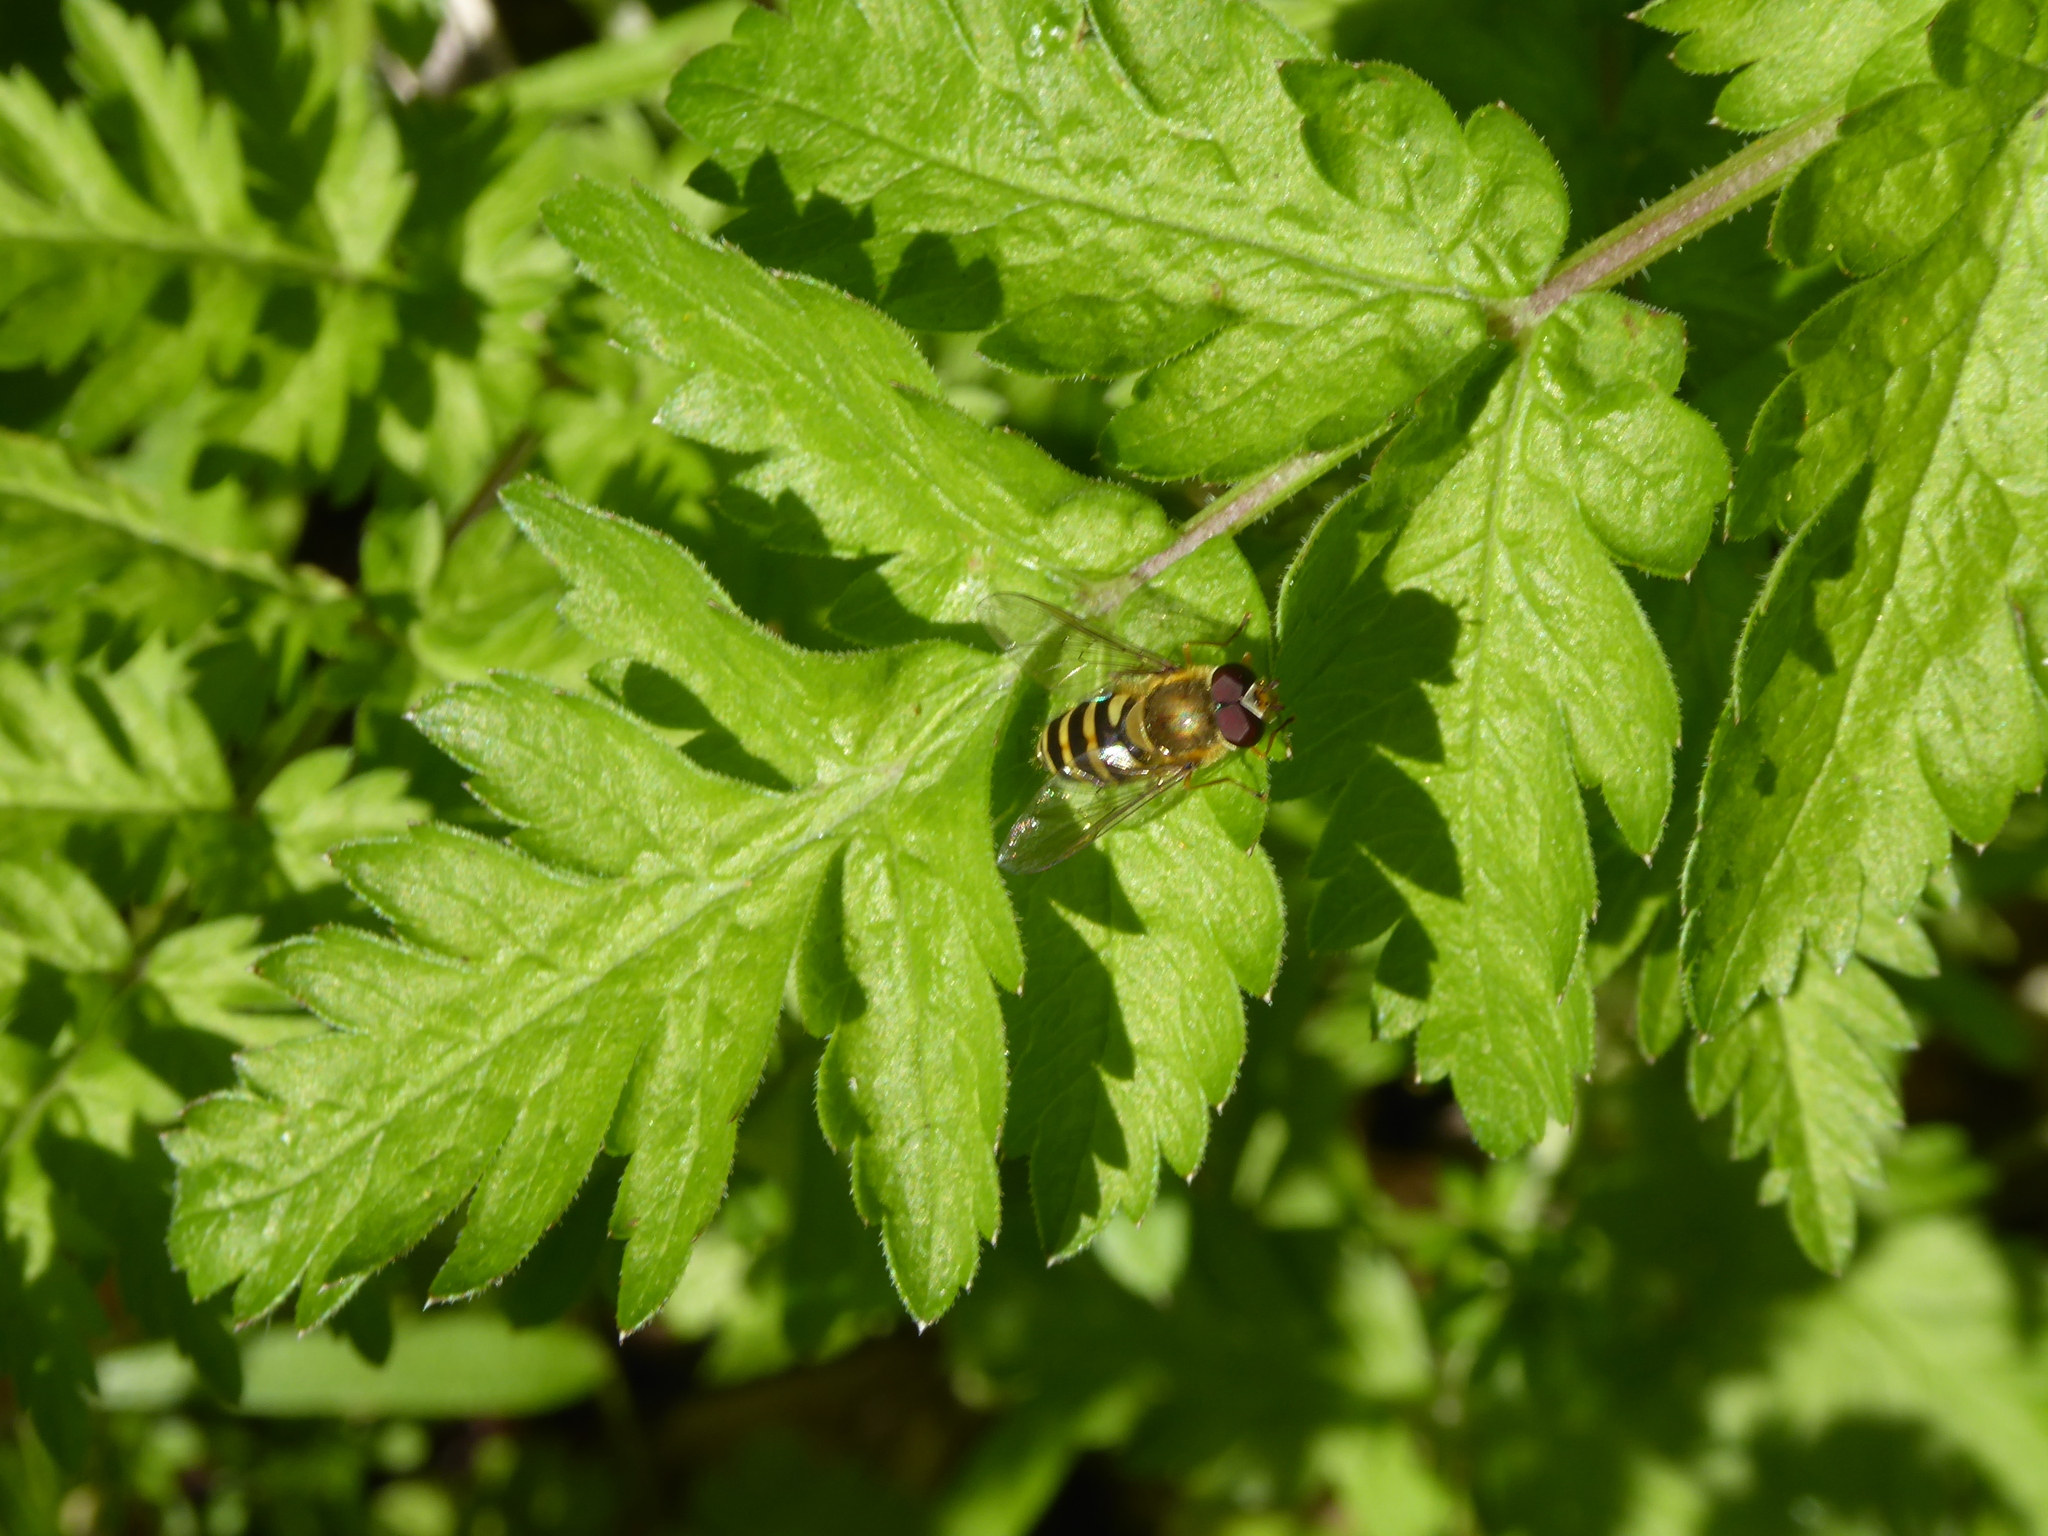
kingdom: Animalia
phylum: Arthropoda
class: Insecta
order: Diptera
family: Syrphidae
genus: Syrphus
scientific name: Syrphus
